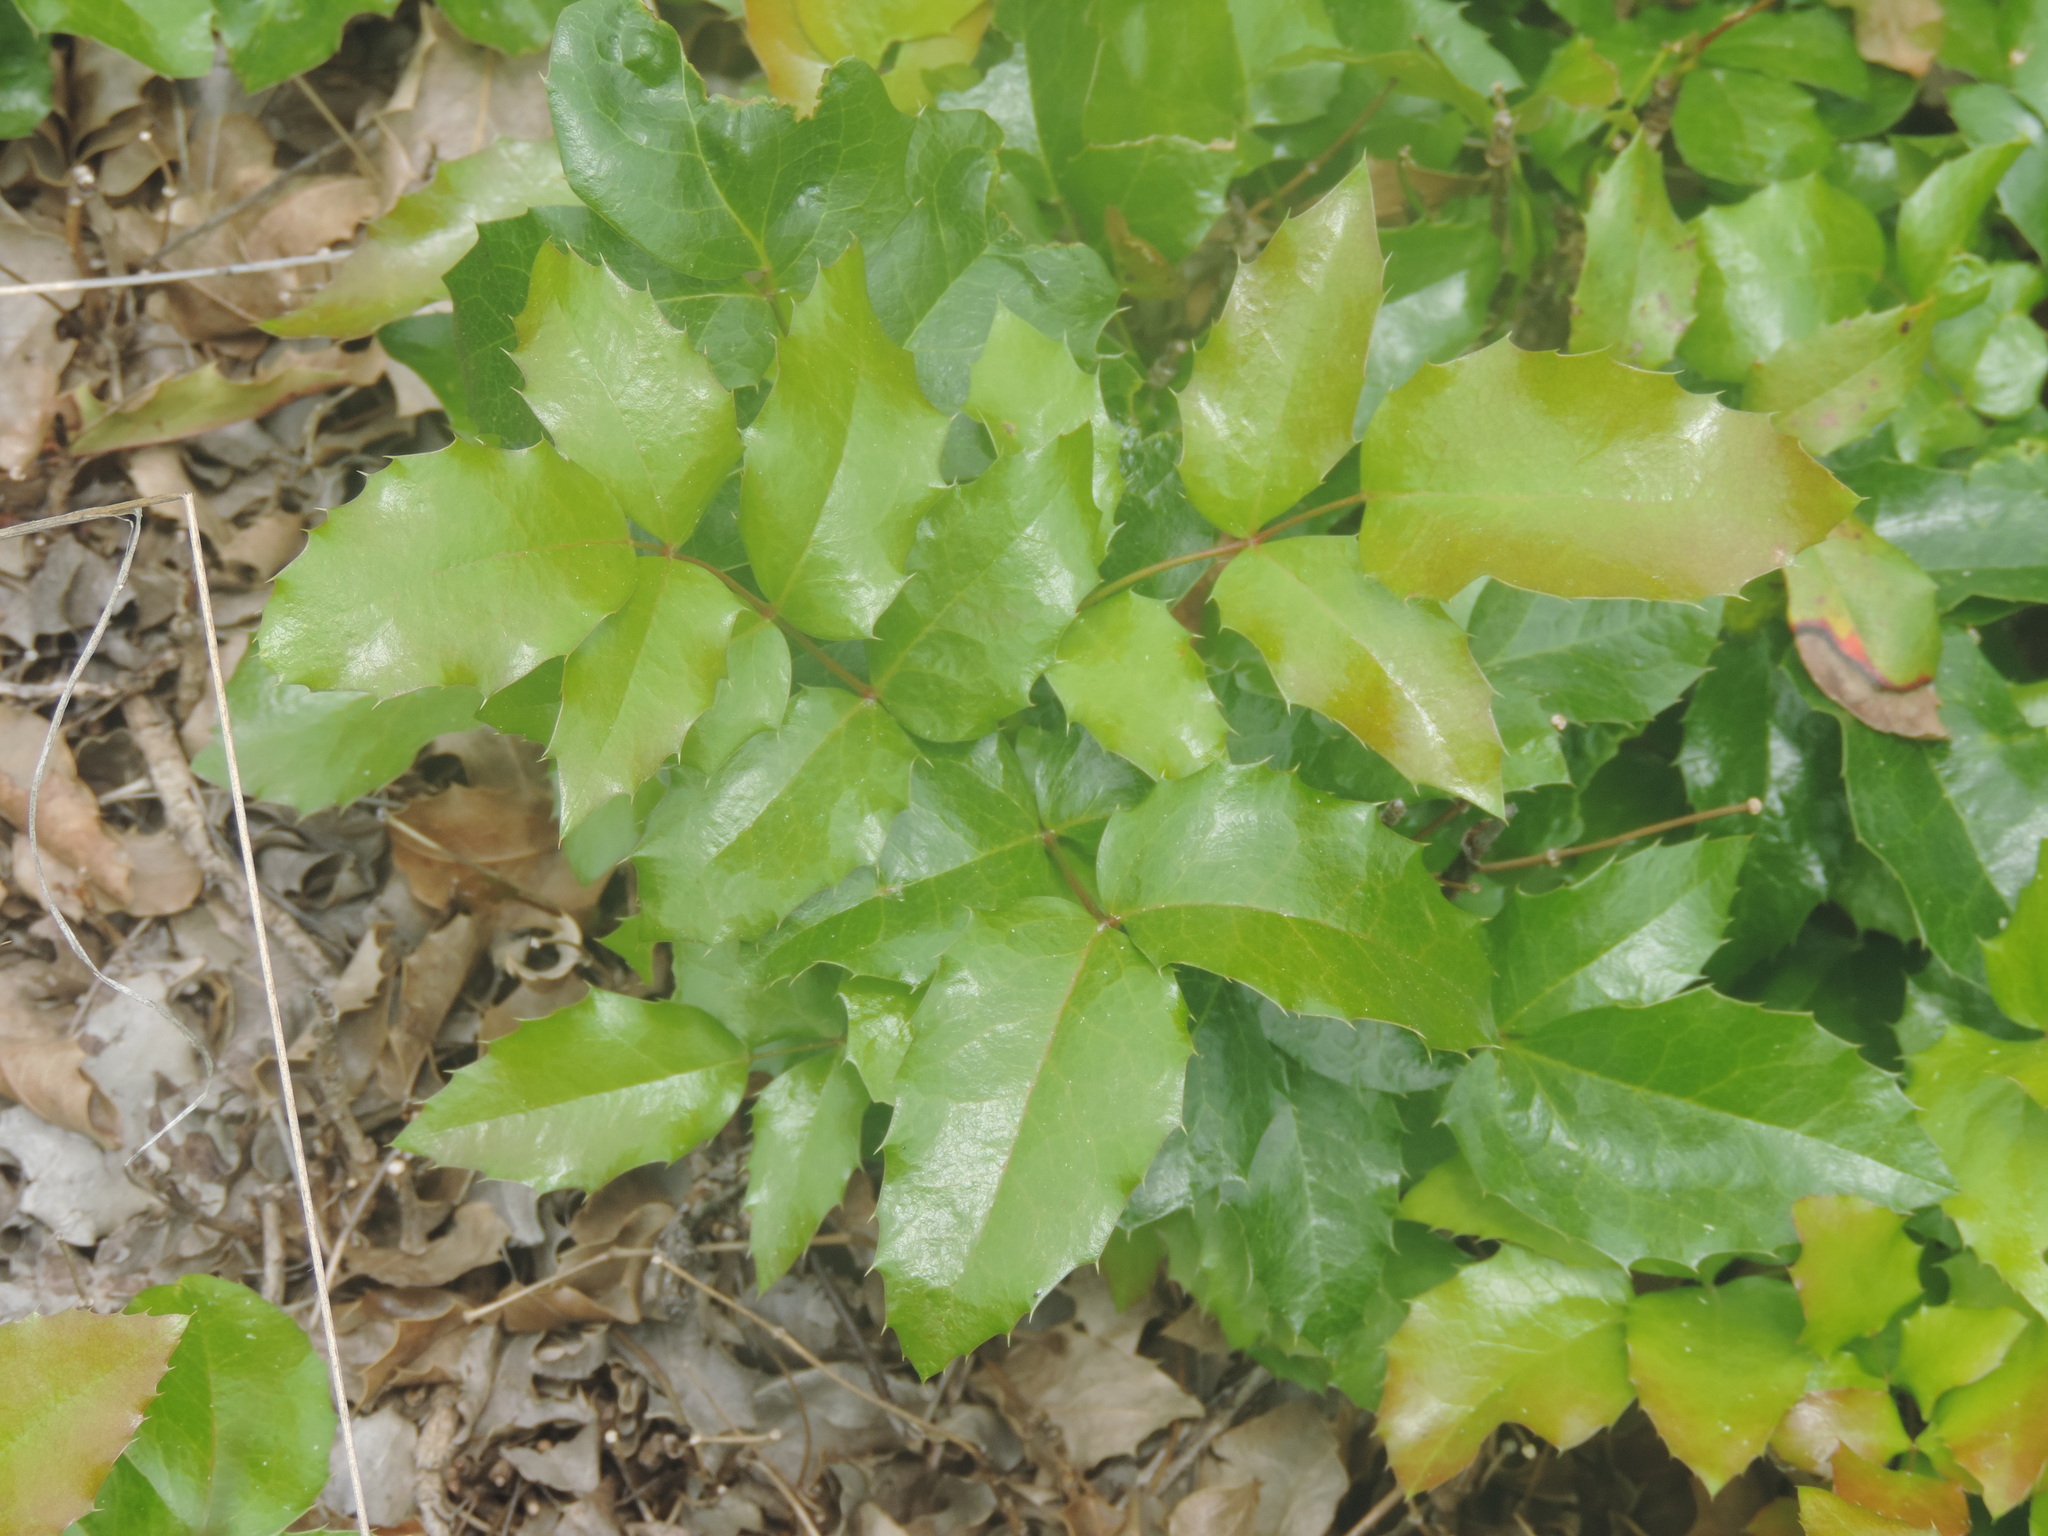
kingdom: Plantae
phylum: Tracheophyta
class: Magnoliopsida
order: Ranunculales
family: Berberidaceae
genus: Mahonia
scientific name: Mahonia aquifolium
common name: Oregon-grape
